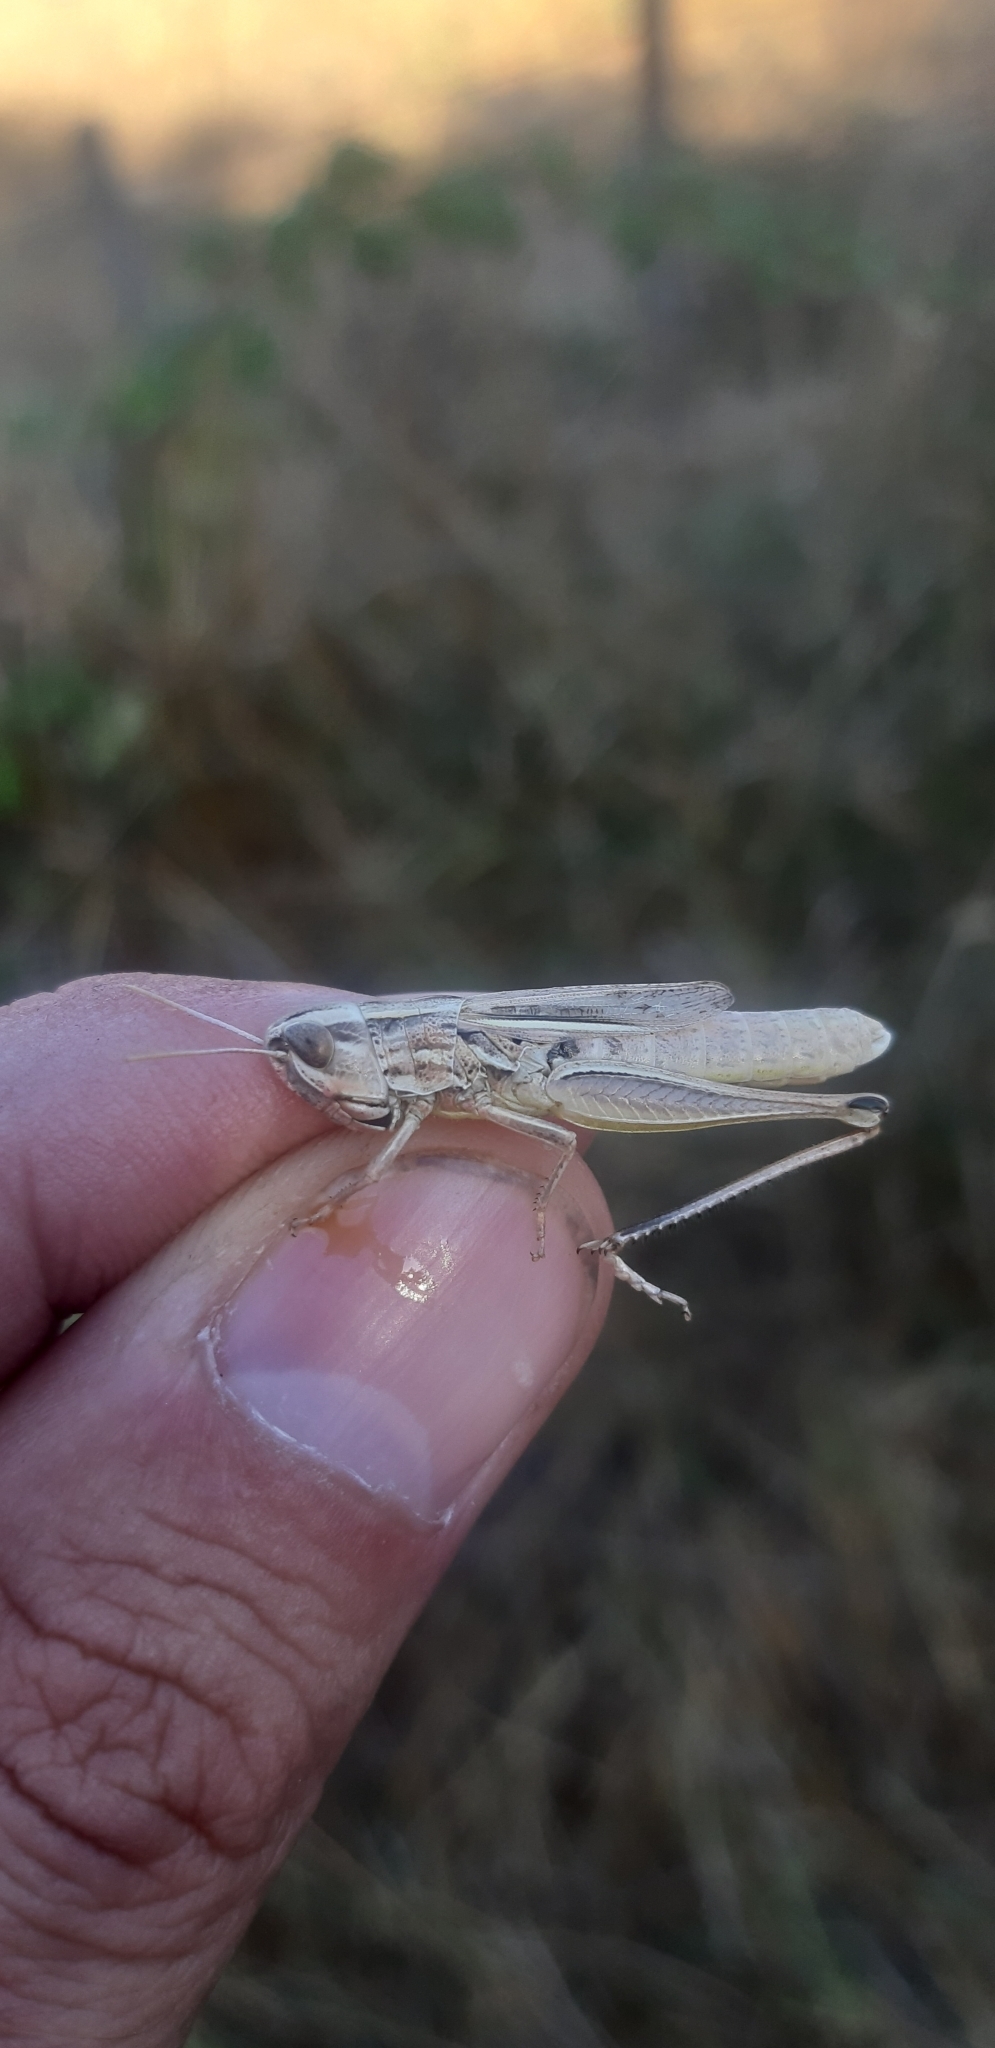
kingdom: Animalia
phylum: Arthropoda
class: Insecta
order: Orthoptera
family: Acrididae
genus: Euchorthippus
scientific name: Euchorthippus declivus
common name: Common straw grasshopper
